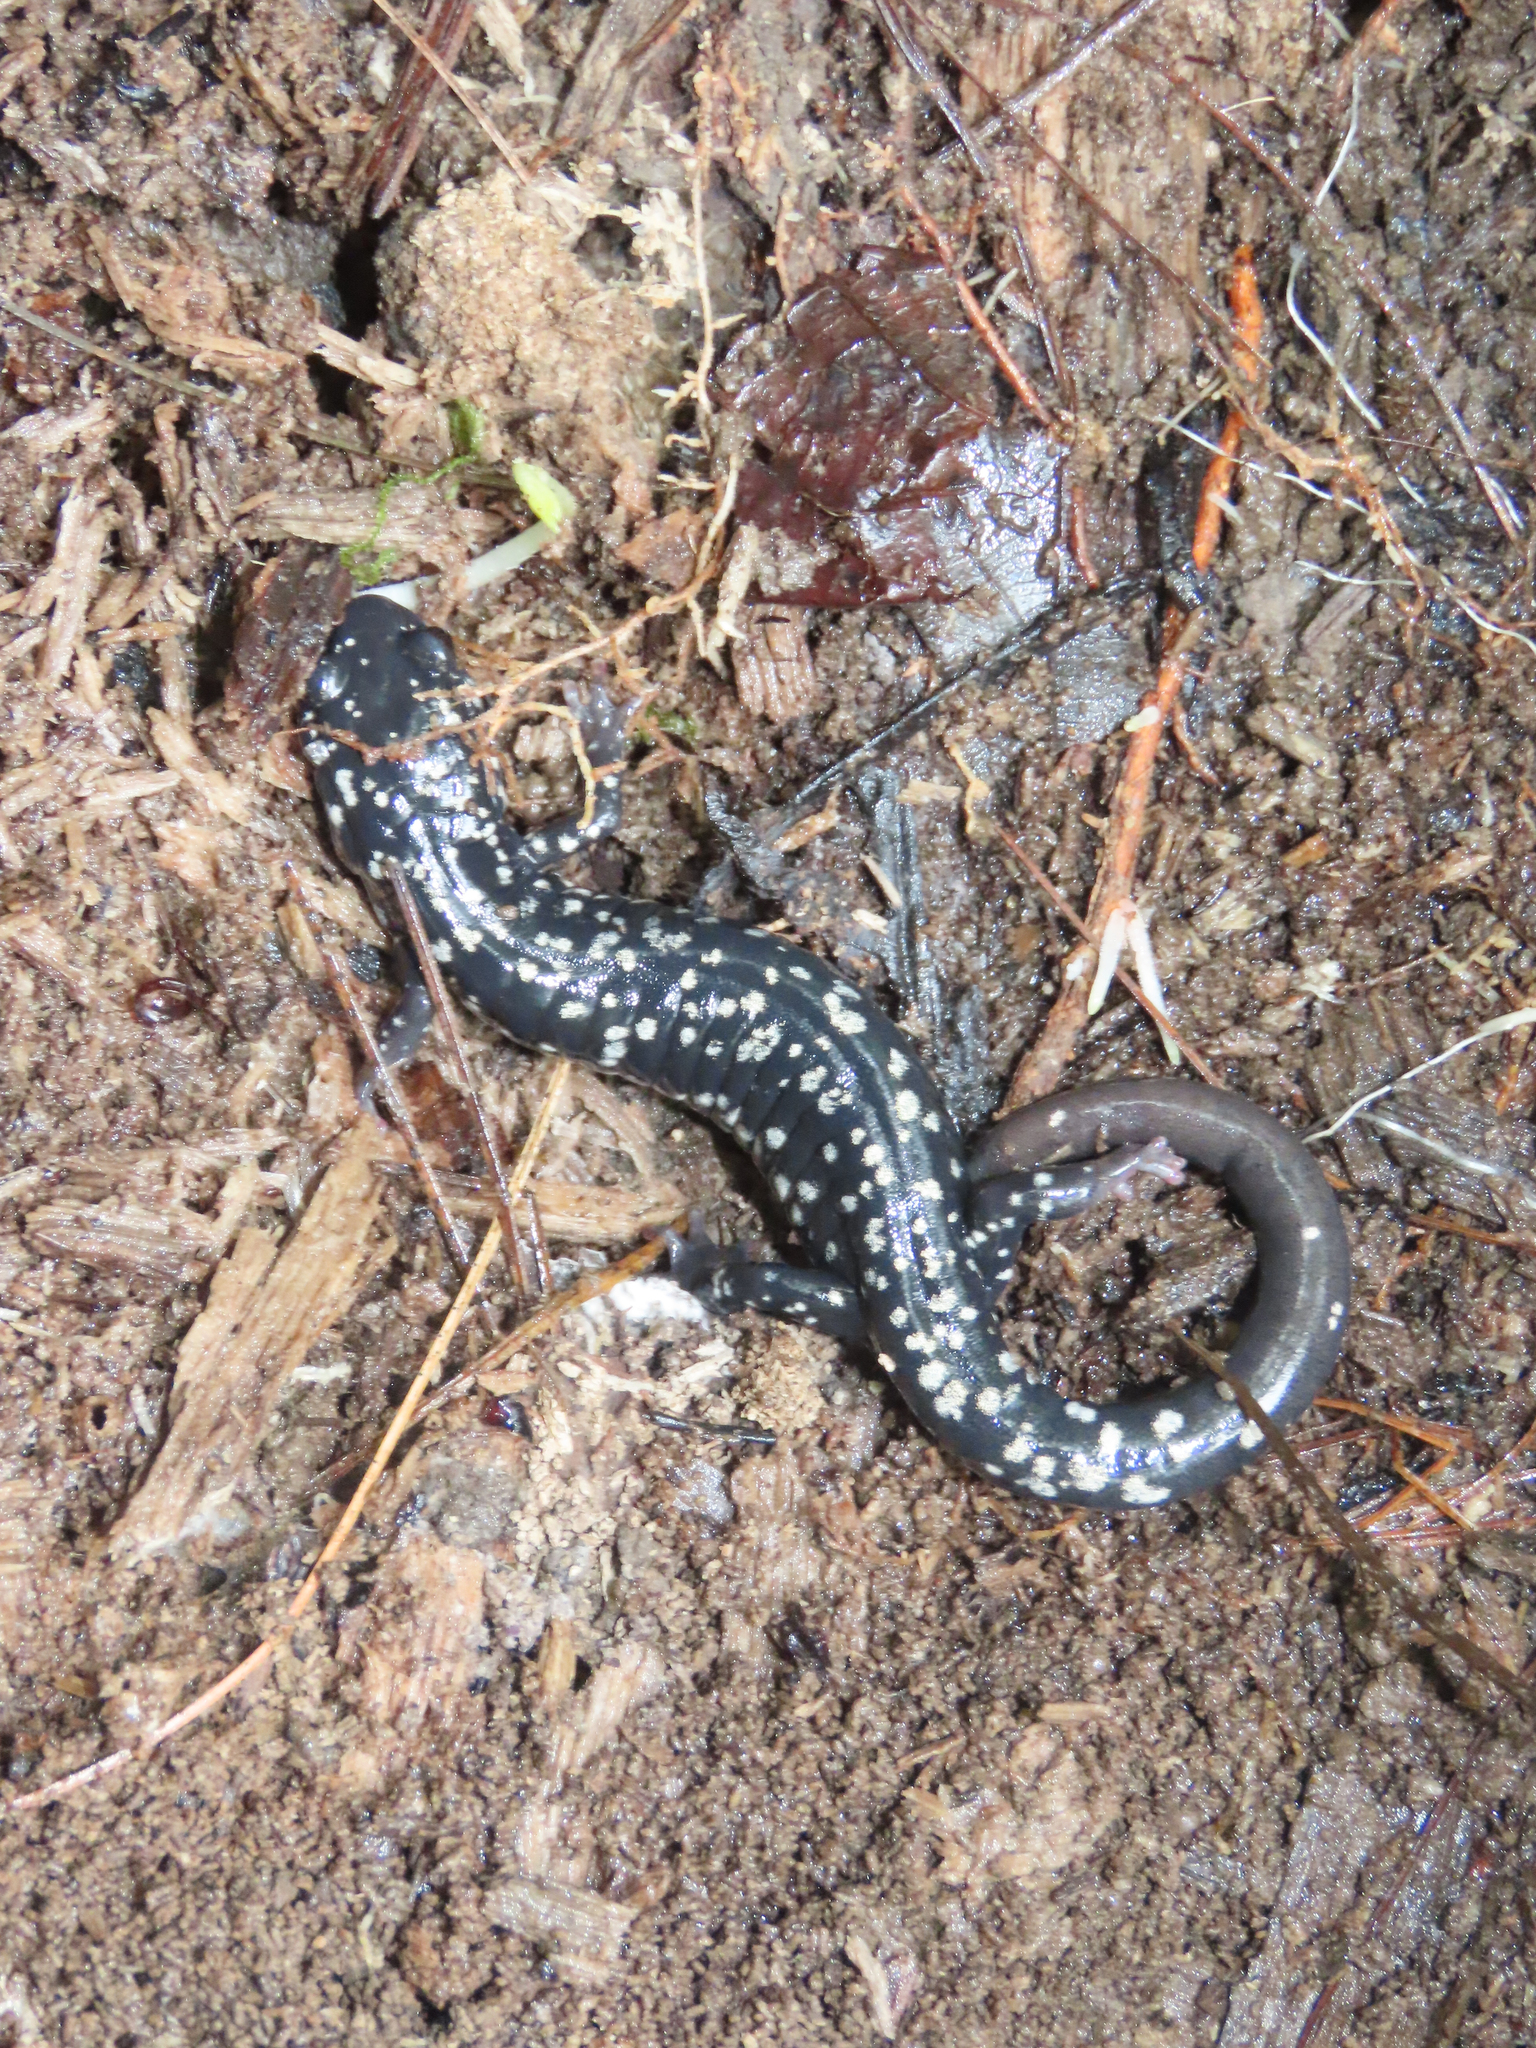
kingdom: Animalia
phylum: Chordata
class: Amphibia
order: Caudata
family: Plethodontidae
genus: Plethodon
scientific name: Plethodon glutinosus
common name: Northern slimy salamander
